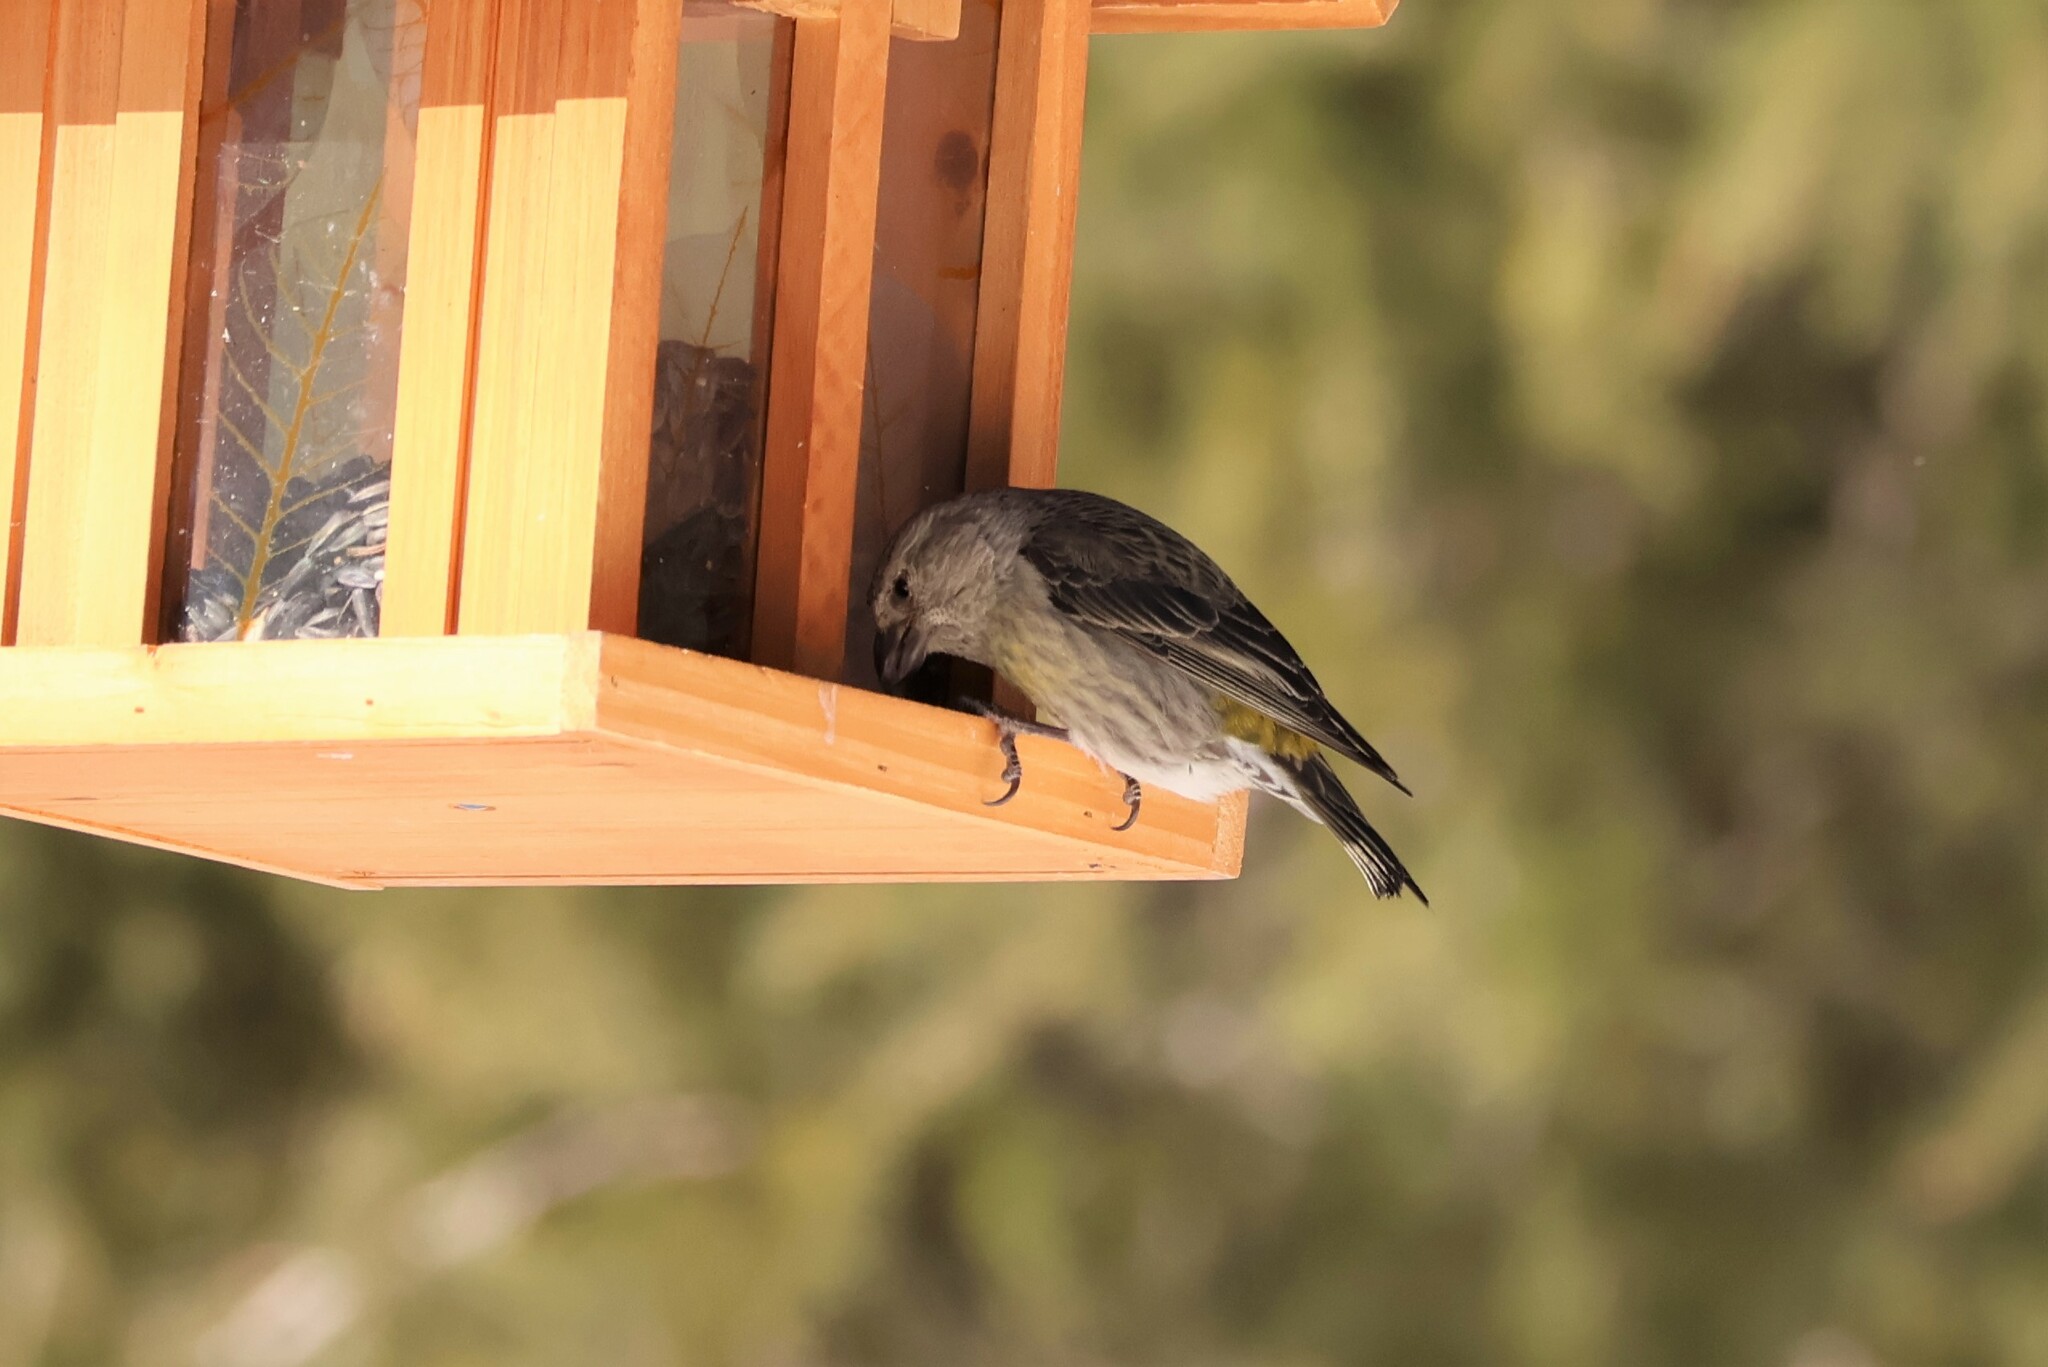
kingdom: Animalia
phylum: Chordata
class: Aves
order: Passeriformes
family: Fringillidae
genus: Loxia
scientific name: Loxia curvirostra
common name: Red crossbill
